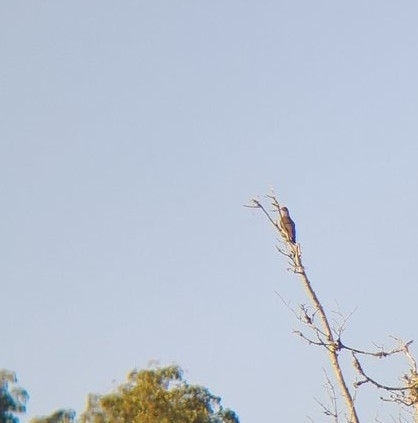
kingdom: Animalia
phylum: Chordata
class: Aves
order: Columbiformes
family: Columbidae
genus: Patagioenas
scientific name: Patagioenas speciosa
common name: Scaled pigeon
